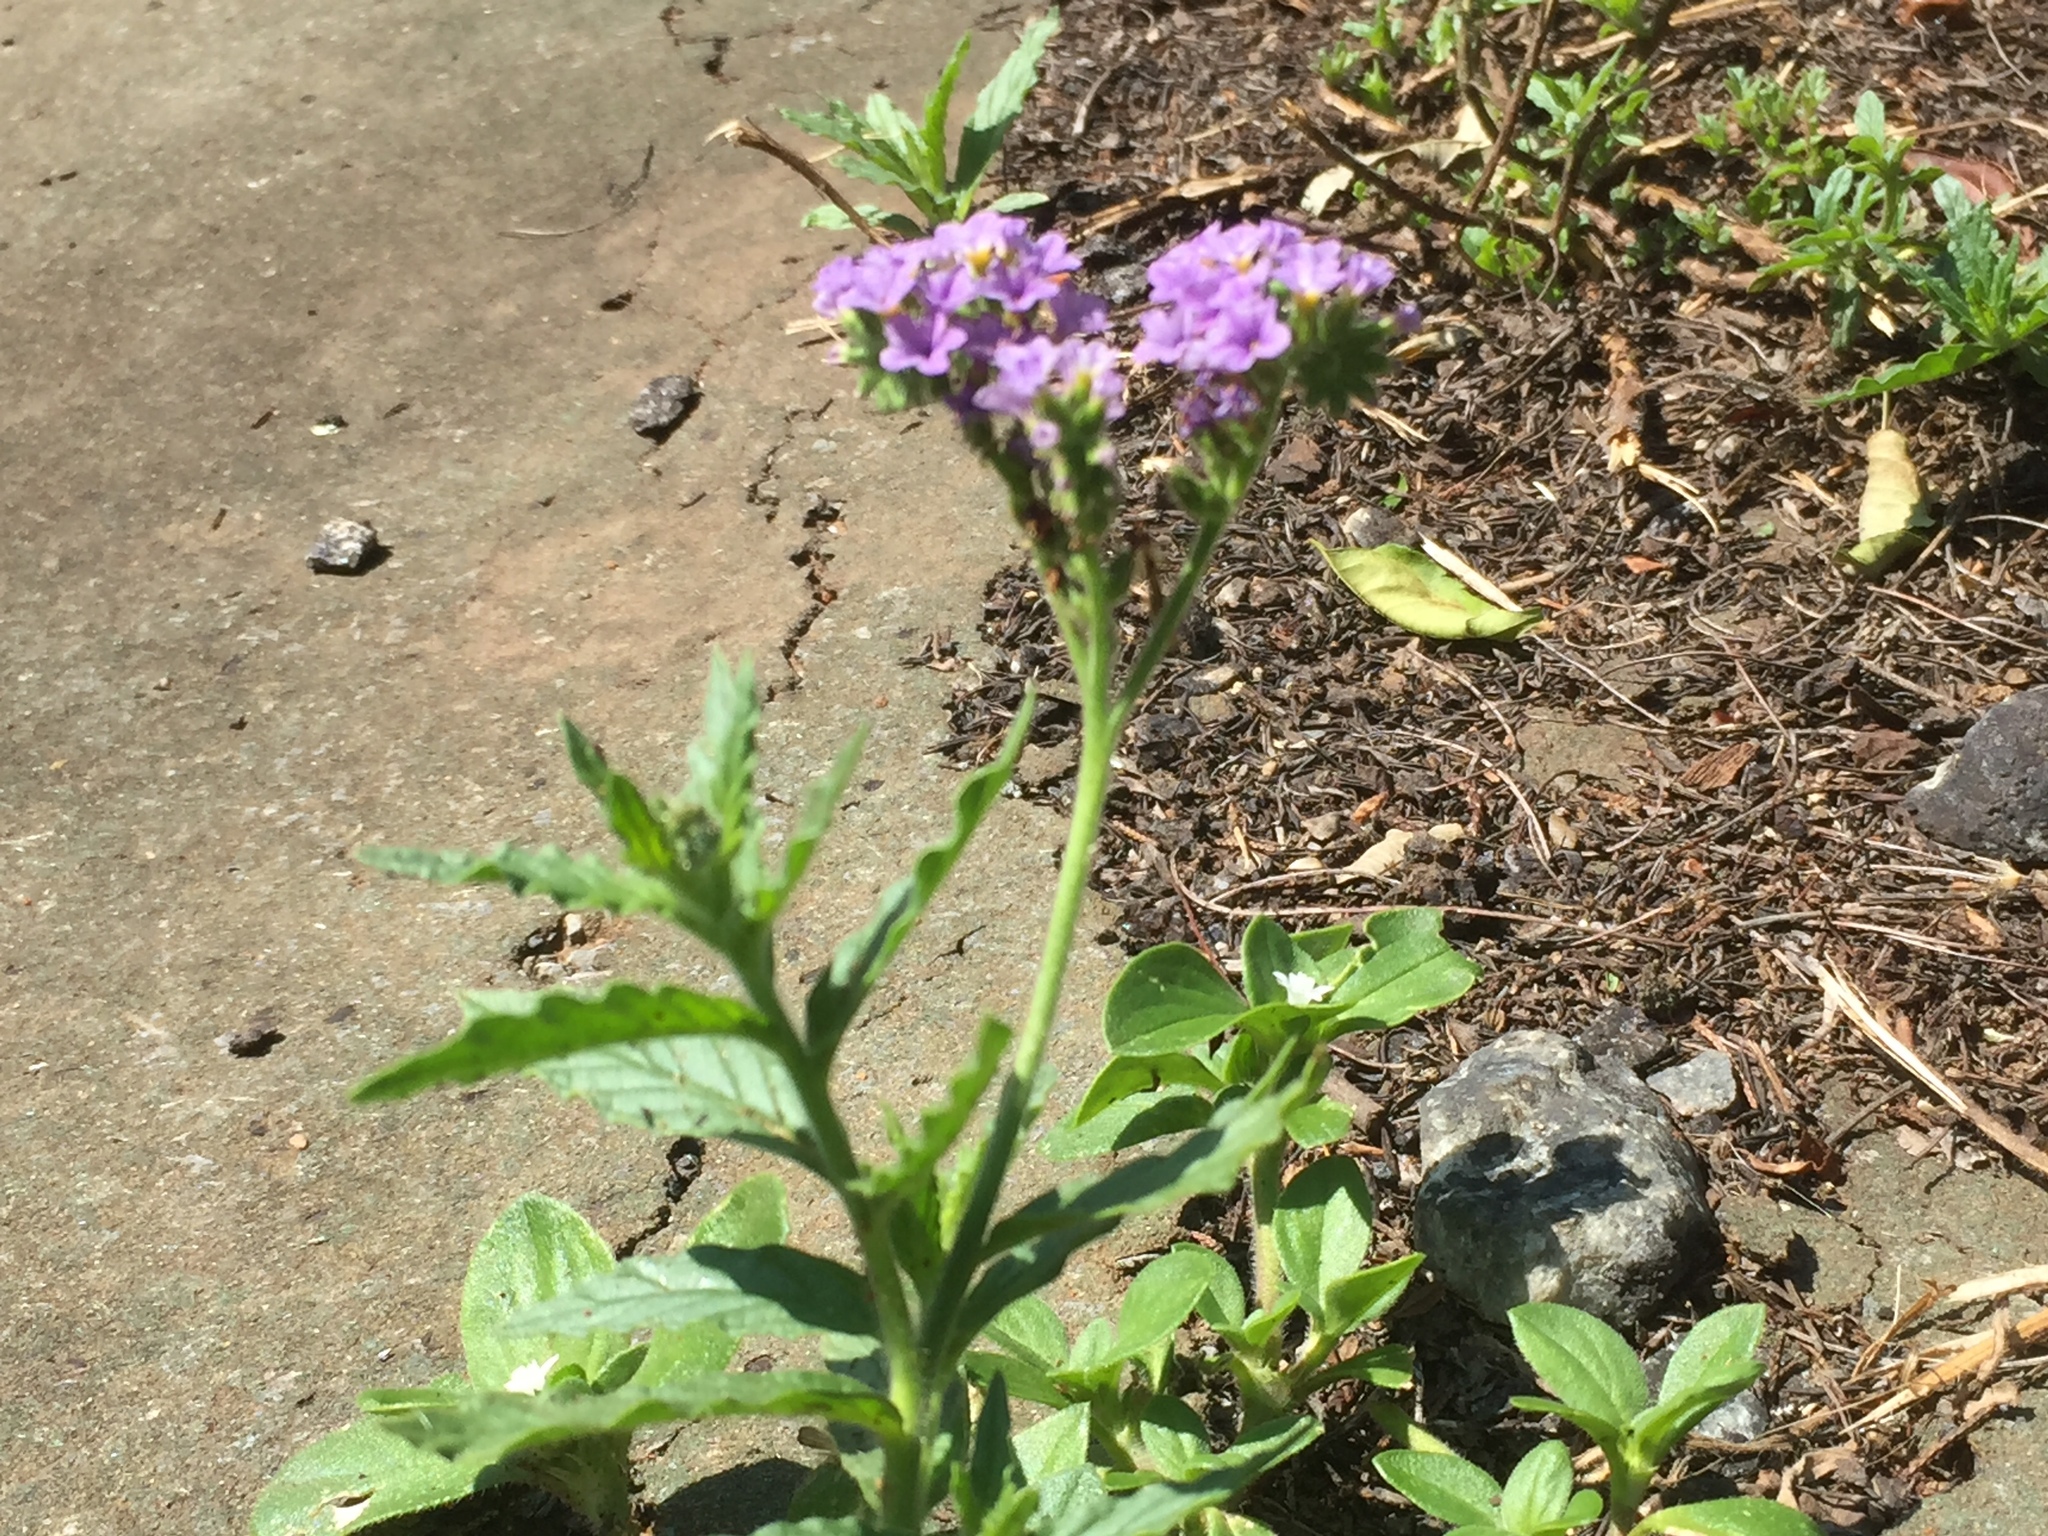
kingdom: Plantae
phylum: Tracheophyta
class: Magnoliopsida
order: Boraginales
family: Heliotropiaceae
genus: Heliotropium
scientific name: Heliotropium amplexicaule
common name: Clasping heliotrope
